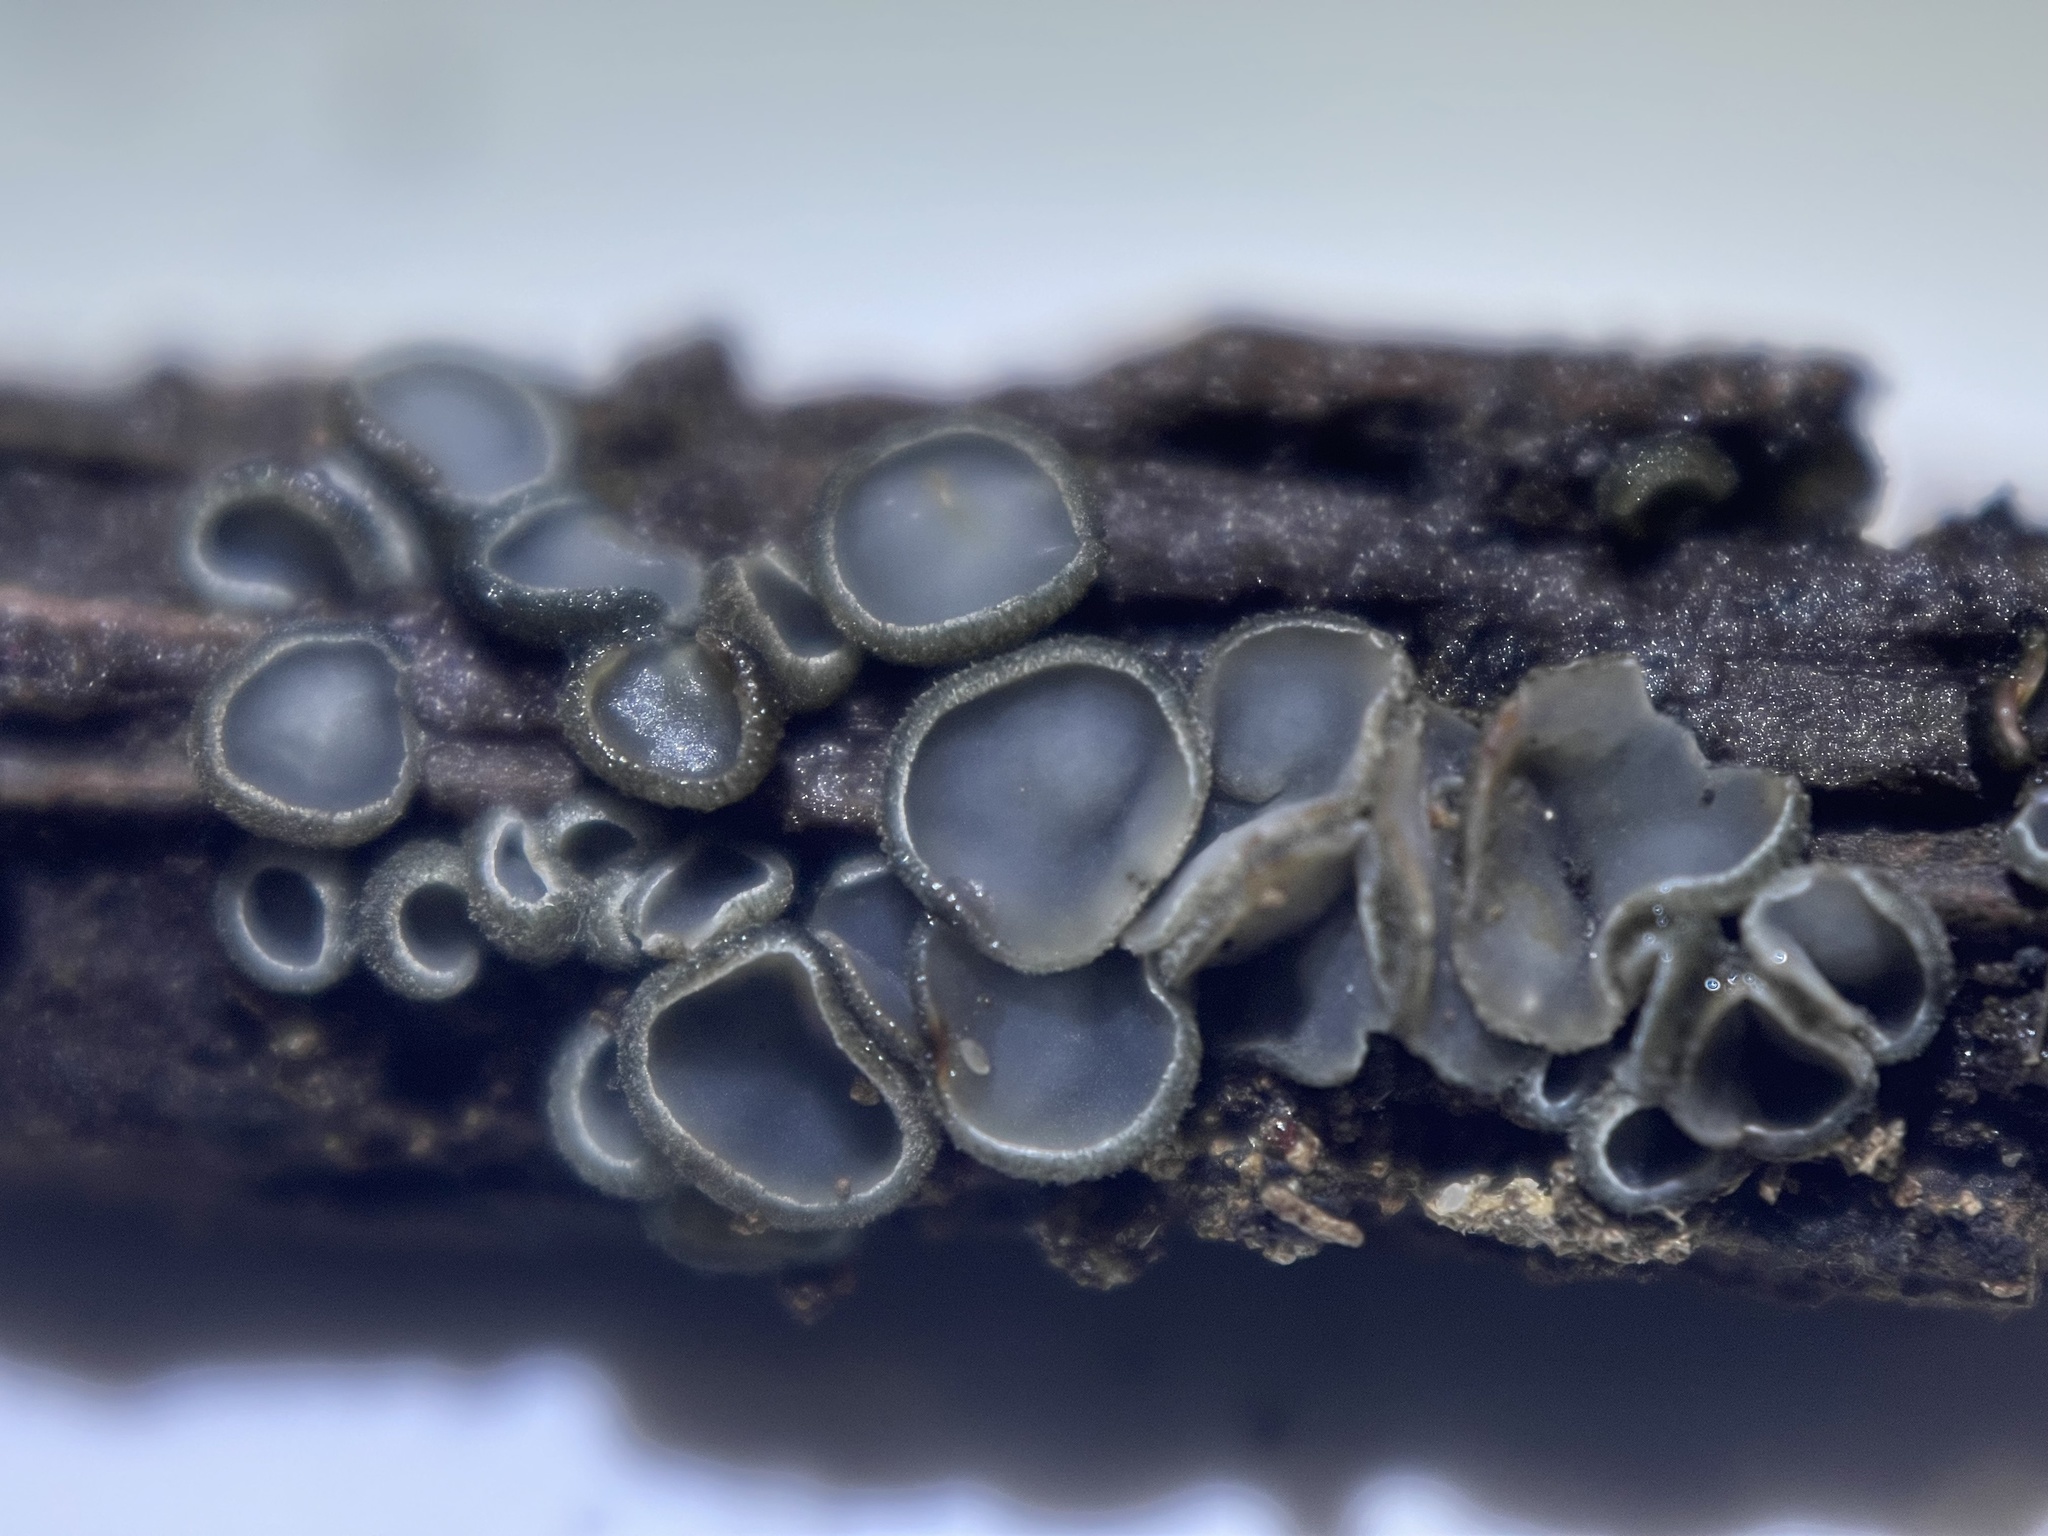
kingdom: Fungi
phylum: Ascomycota
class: Leotiomycetes
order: Helotiales
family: Mollisiaceae
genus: Mollisia
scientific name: Mollisia cinerea
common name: Common grey disco
